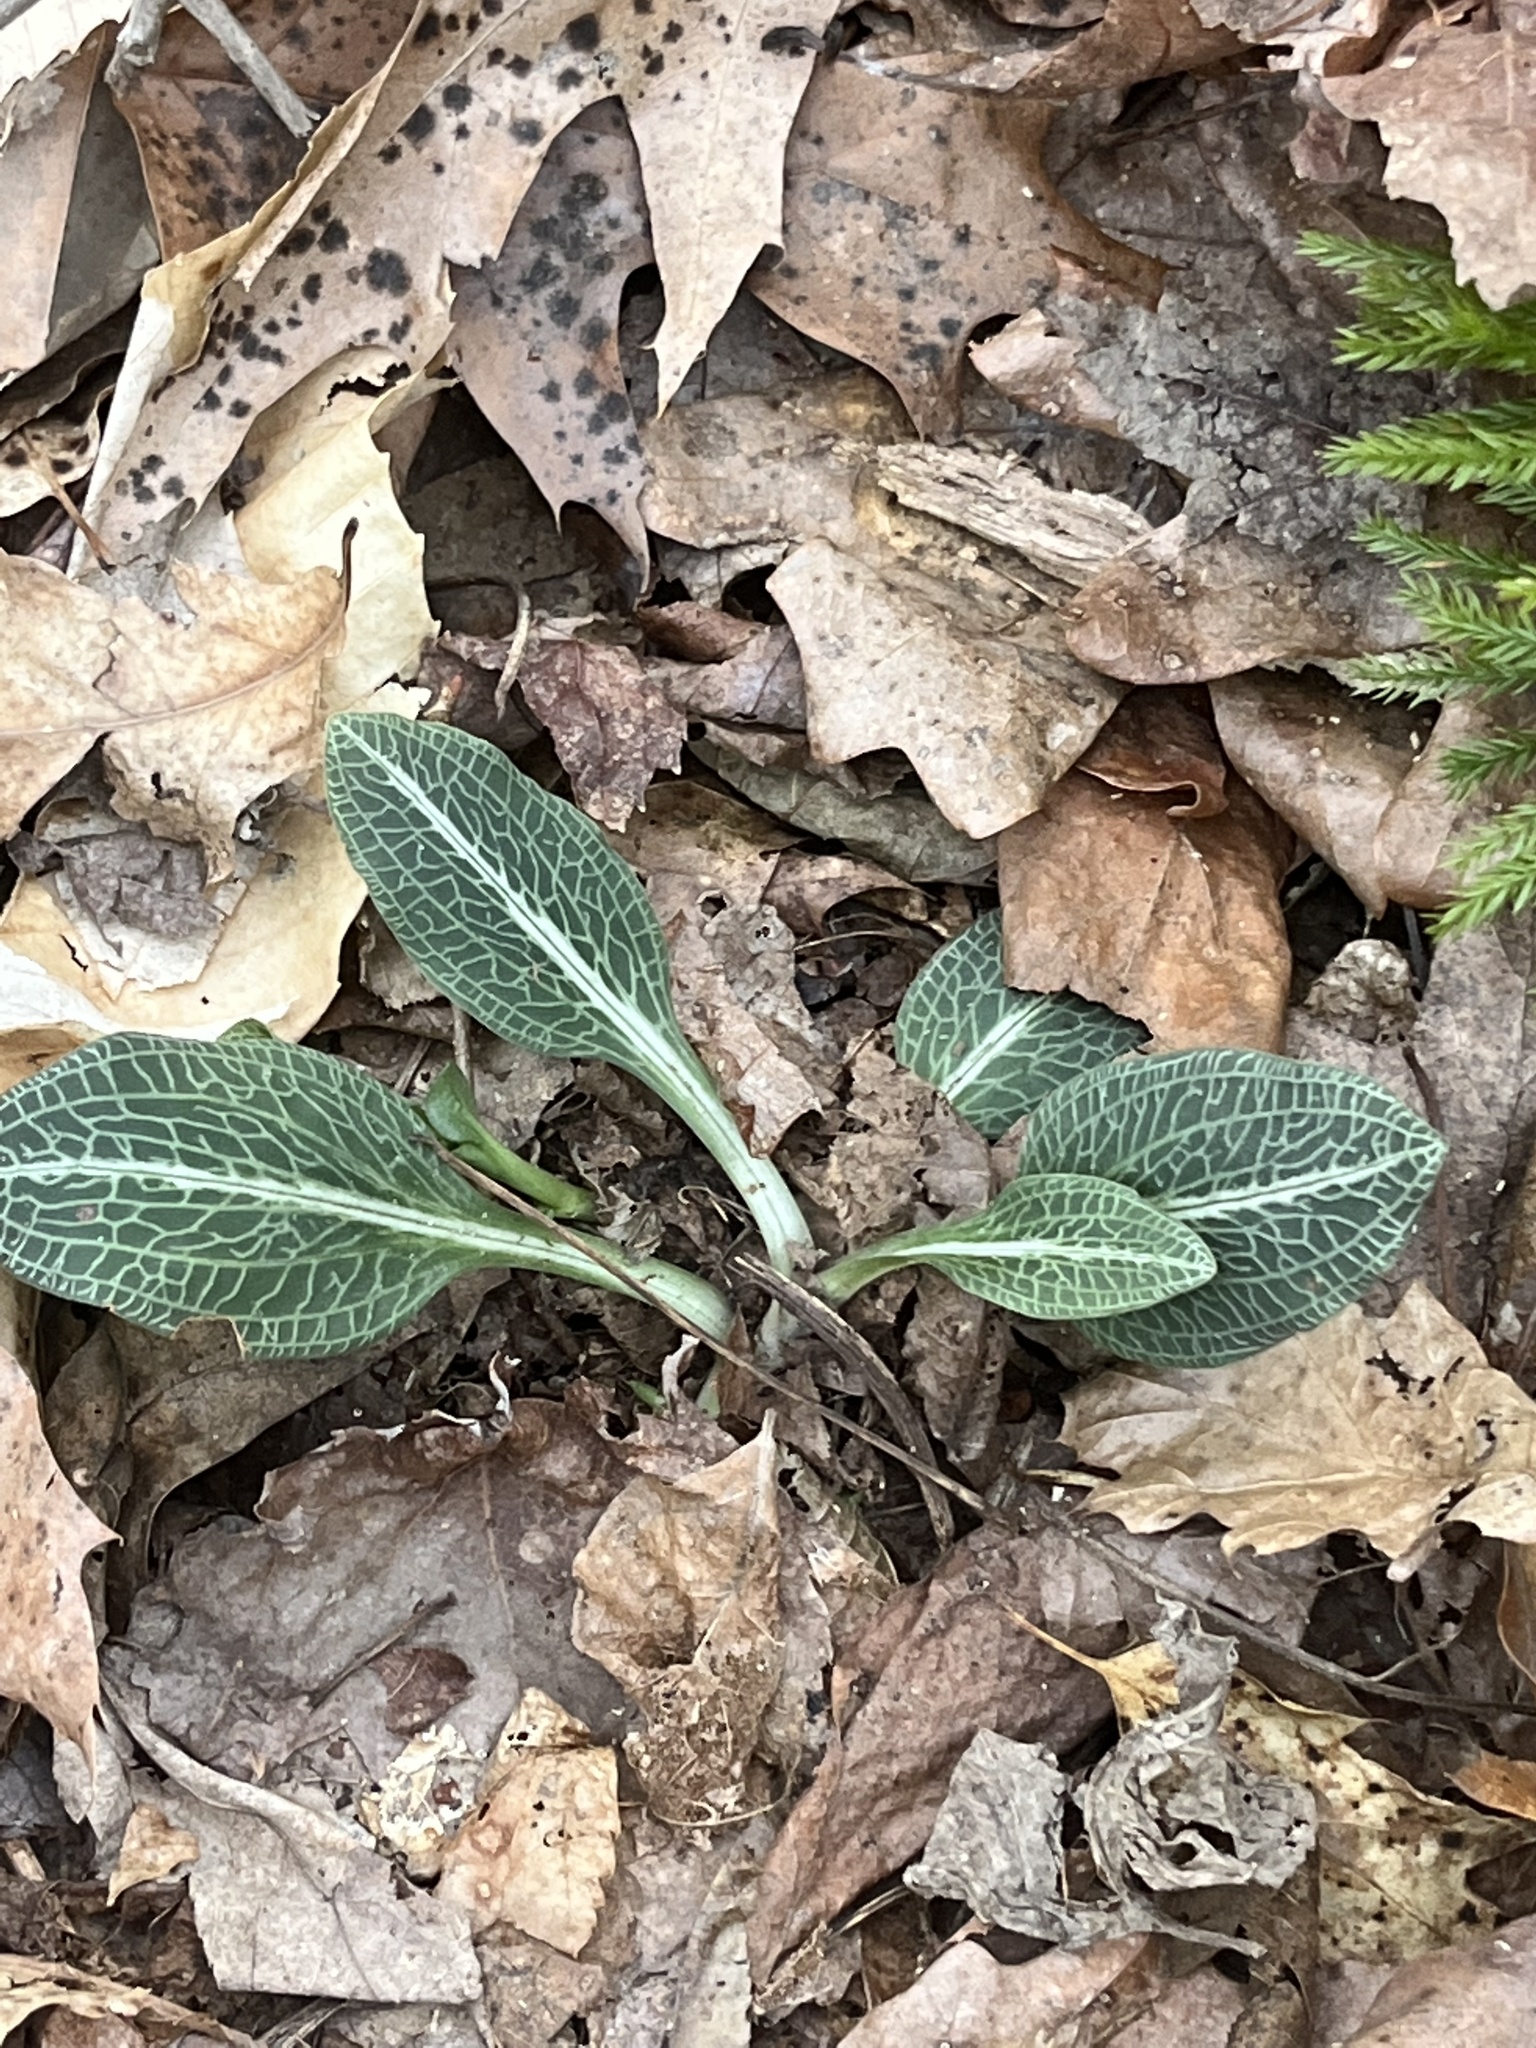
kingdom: Plantae
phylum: Tracheophyta
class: Liliopsida
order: Asparagales
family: Orchidaceae
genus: Goodyera
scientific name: Goodyera pubescens
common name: Downy rattlesnake-plantain
